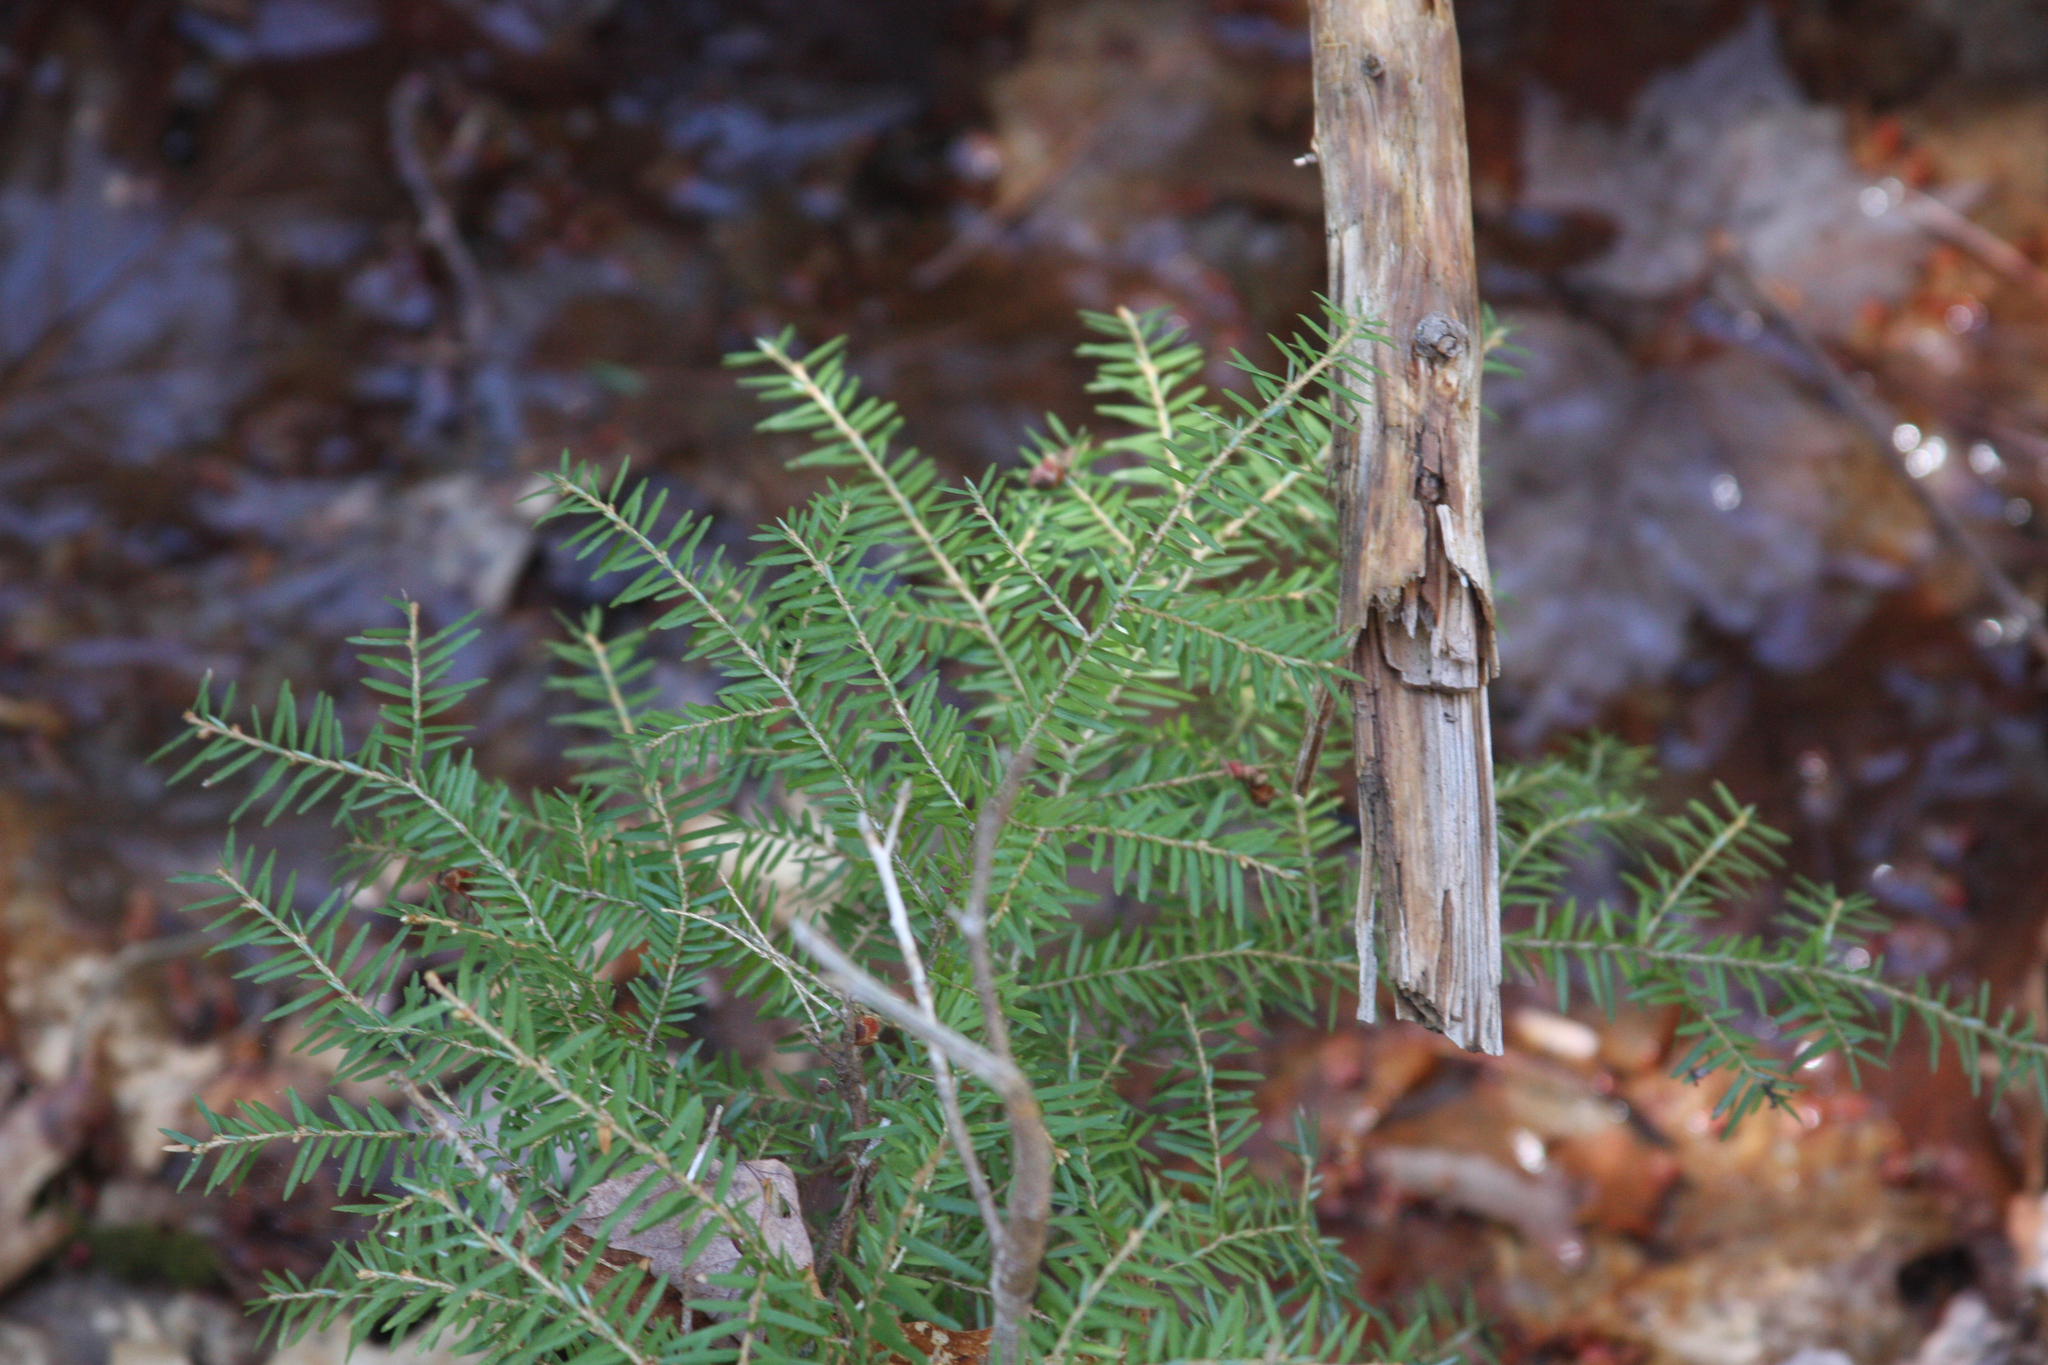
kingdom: Plantae
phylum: Tracheophyta
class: Pinopsida
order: Pinales
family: Pinaceae
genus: Tsuga
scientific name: Tsuga canadensis
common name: Eastern hemlock
